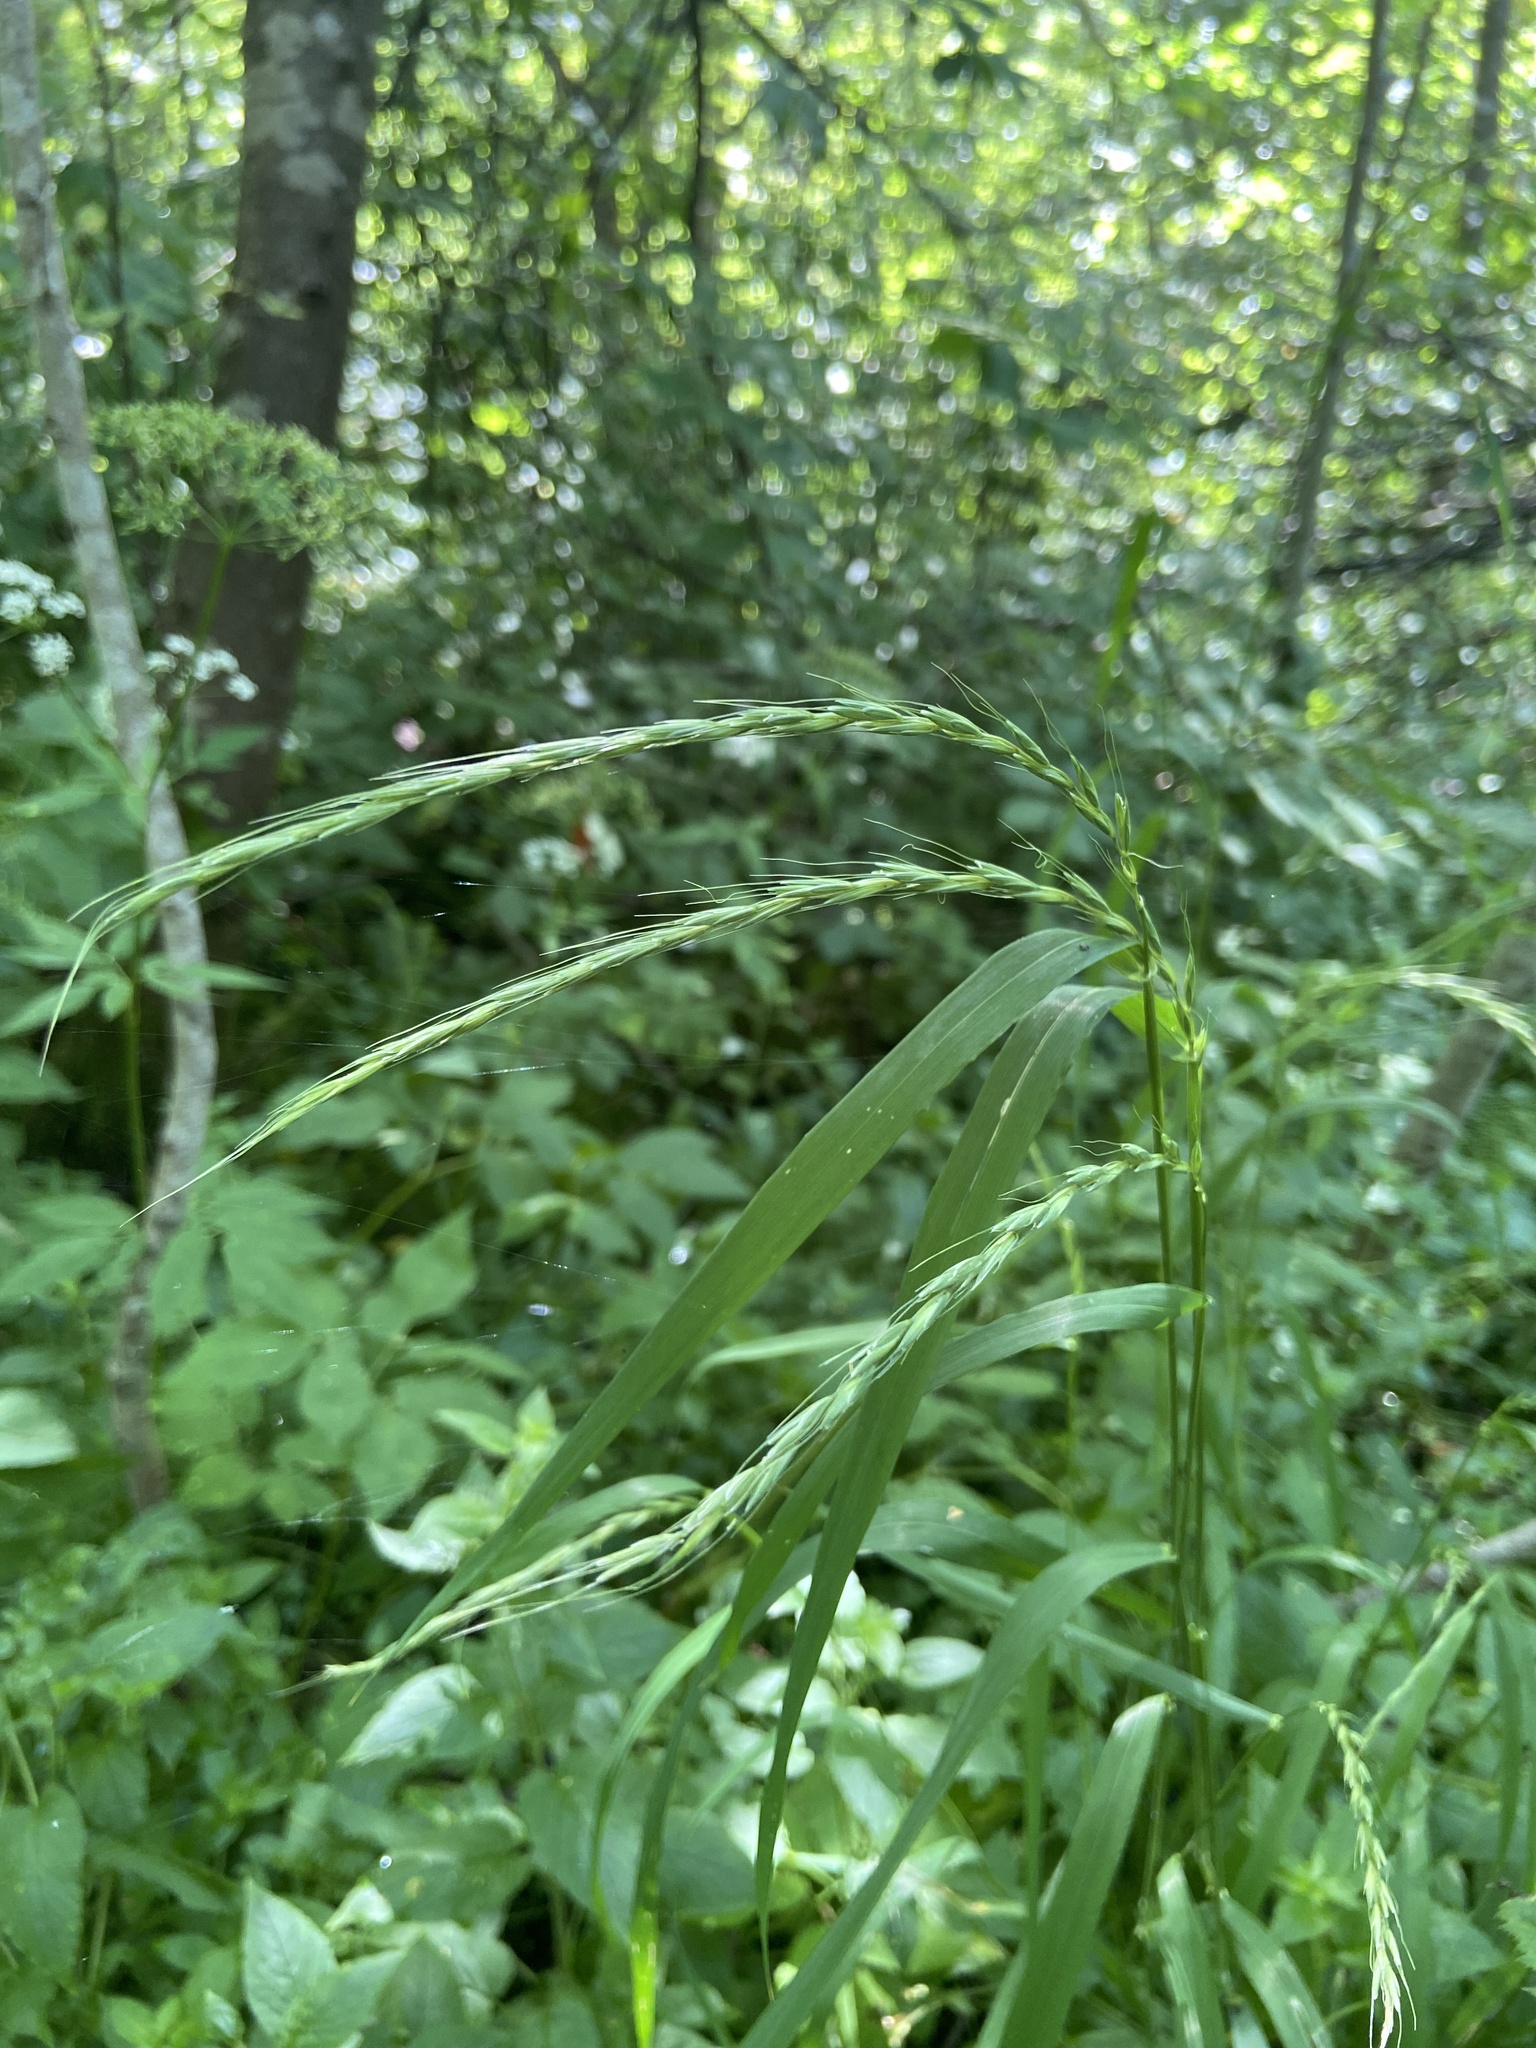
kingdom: Plantae
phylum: Tracheophyta
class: Liliopsida
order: Poales
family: Poaceae
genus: Elymus
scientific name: Elymus caninus
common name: Bearded couch
